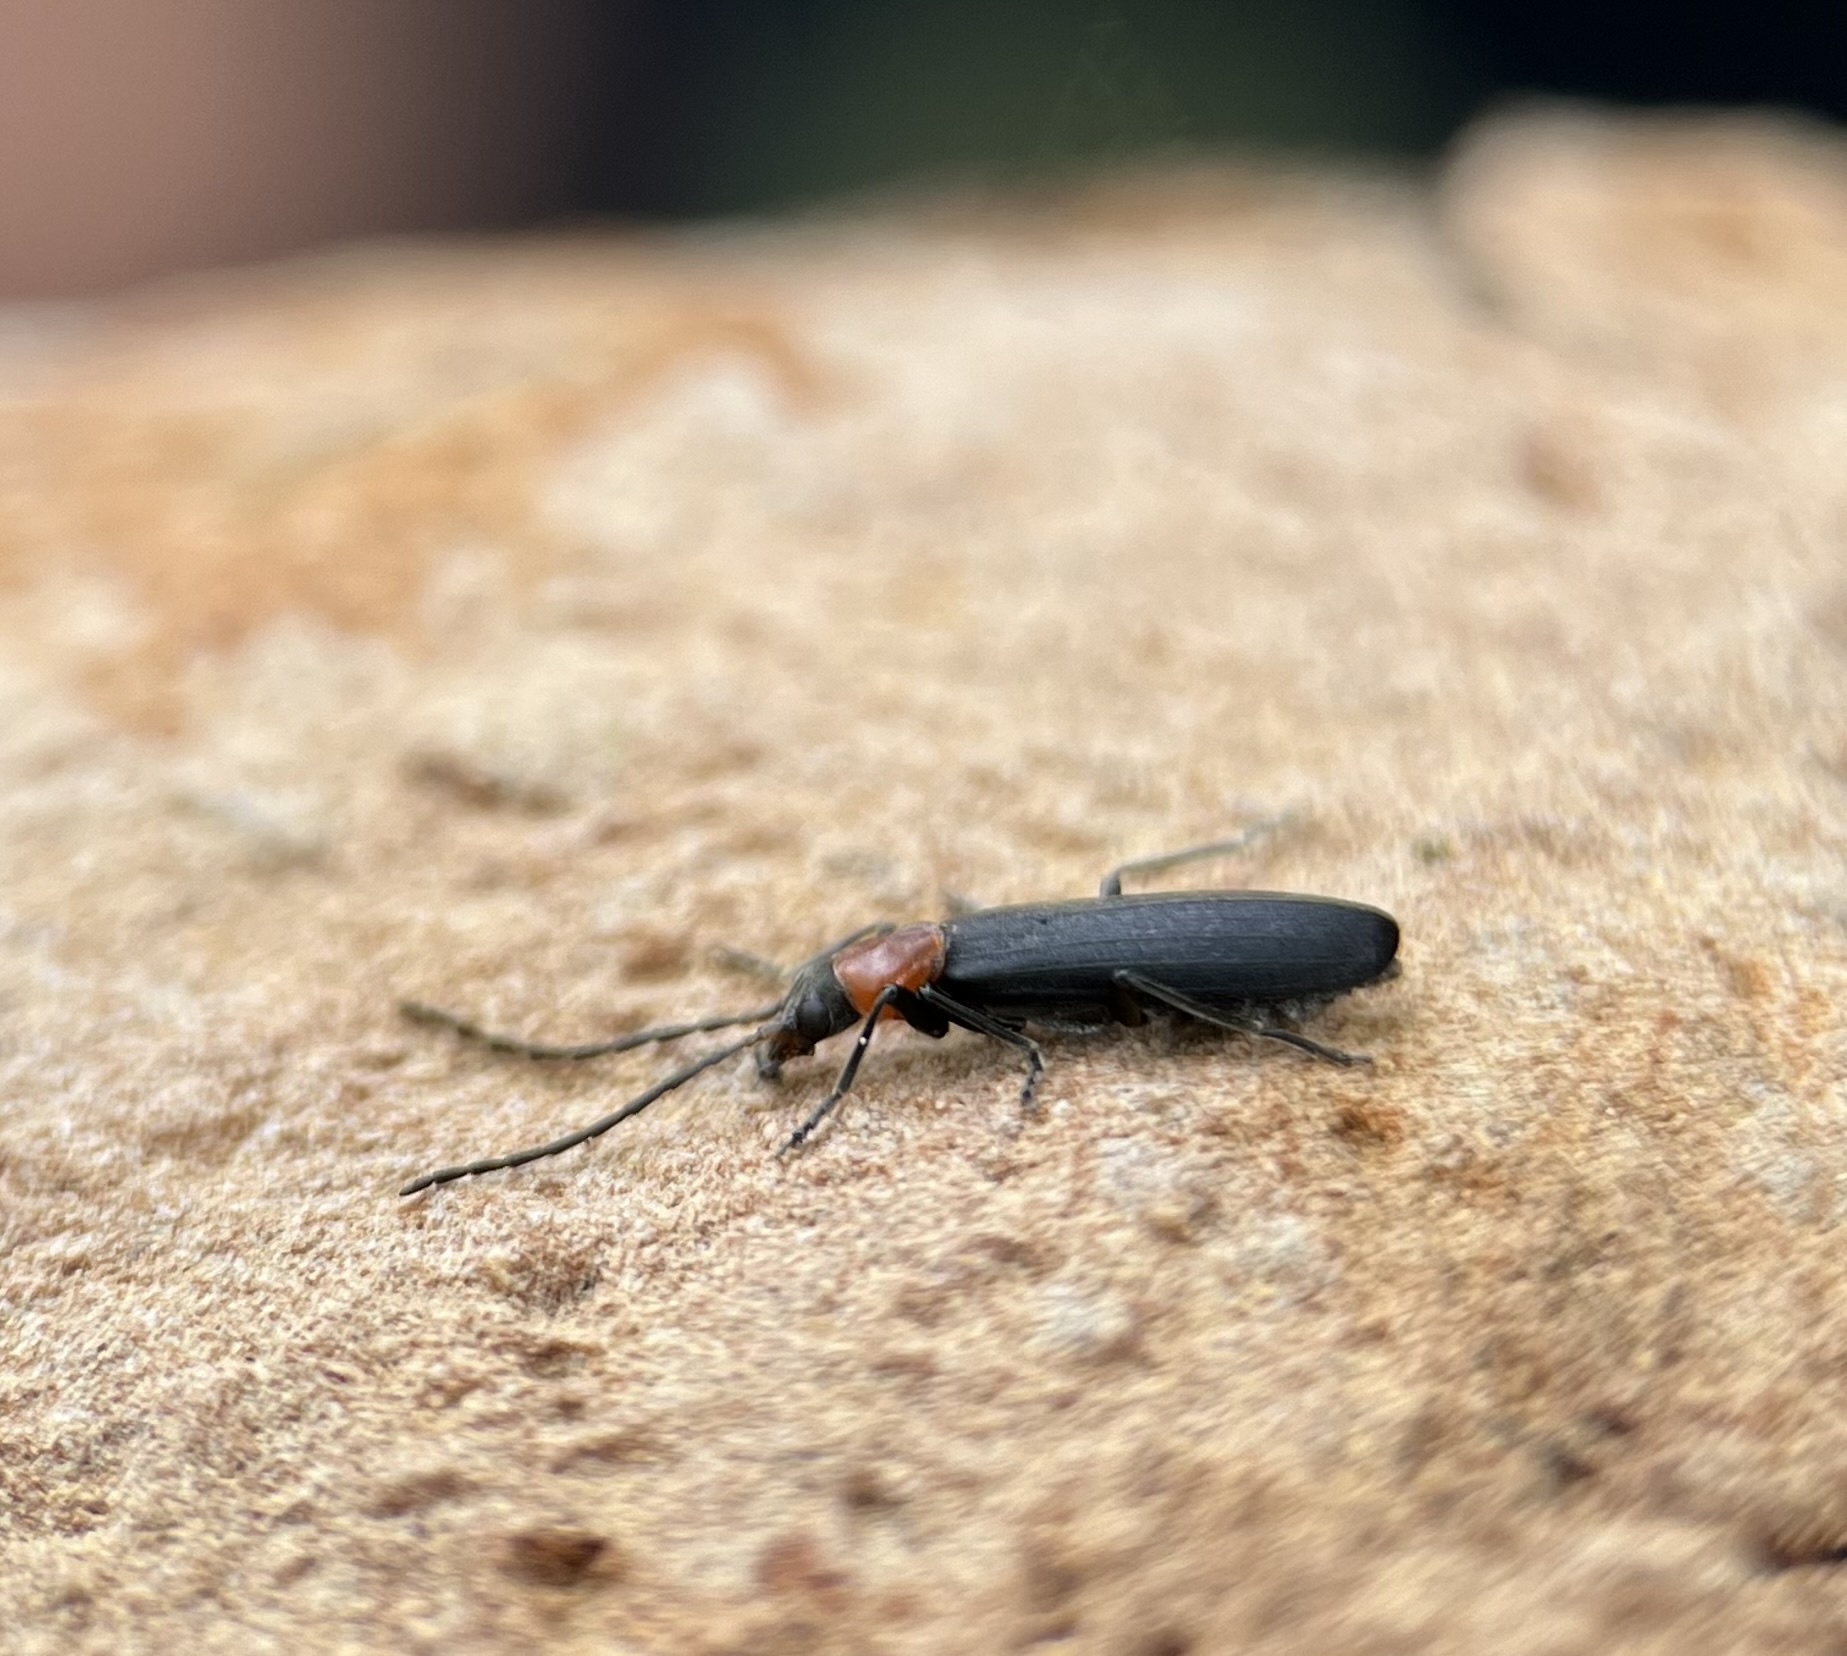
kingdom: Animalia
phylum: Arthropoda
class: Insecta
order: Coleoptera
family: Oedemeridae
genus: Ischnomera
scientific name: Ischnomera
